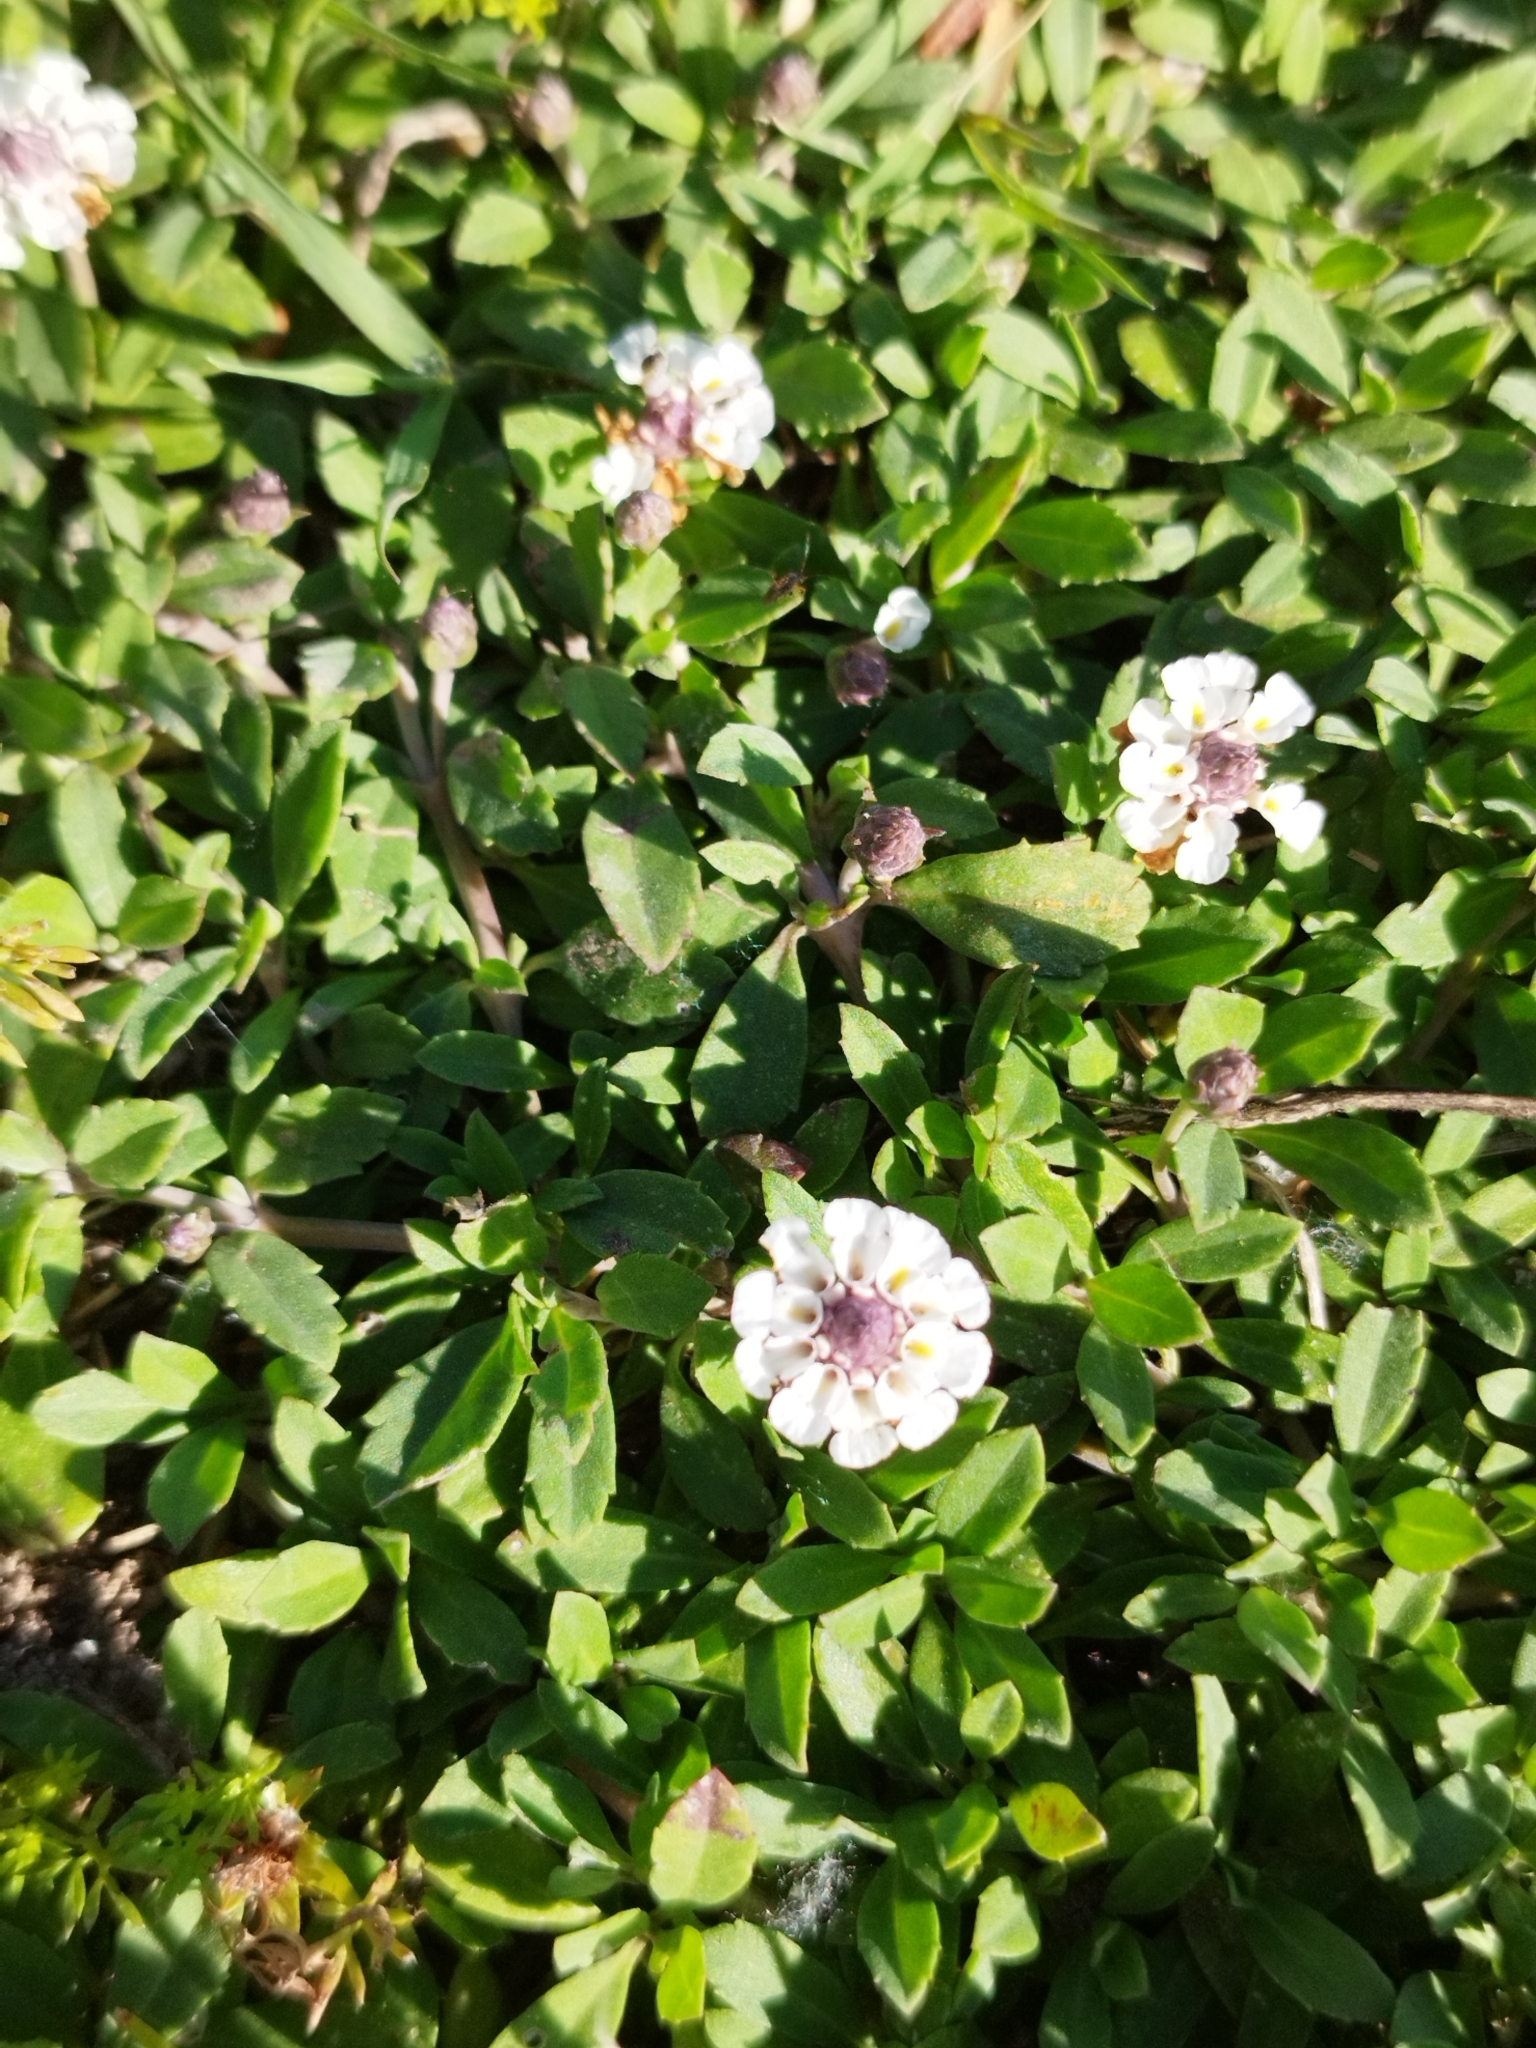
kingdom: Plantae
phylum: Tracheophyta
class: Magnoliopsida
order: Lamiales
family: Verbenaceae
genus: Phyla
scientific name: Phyla nodiflora
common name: Frogfruit
